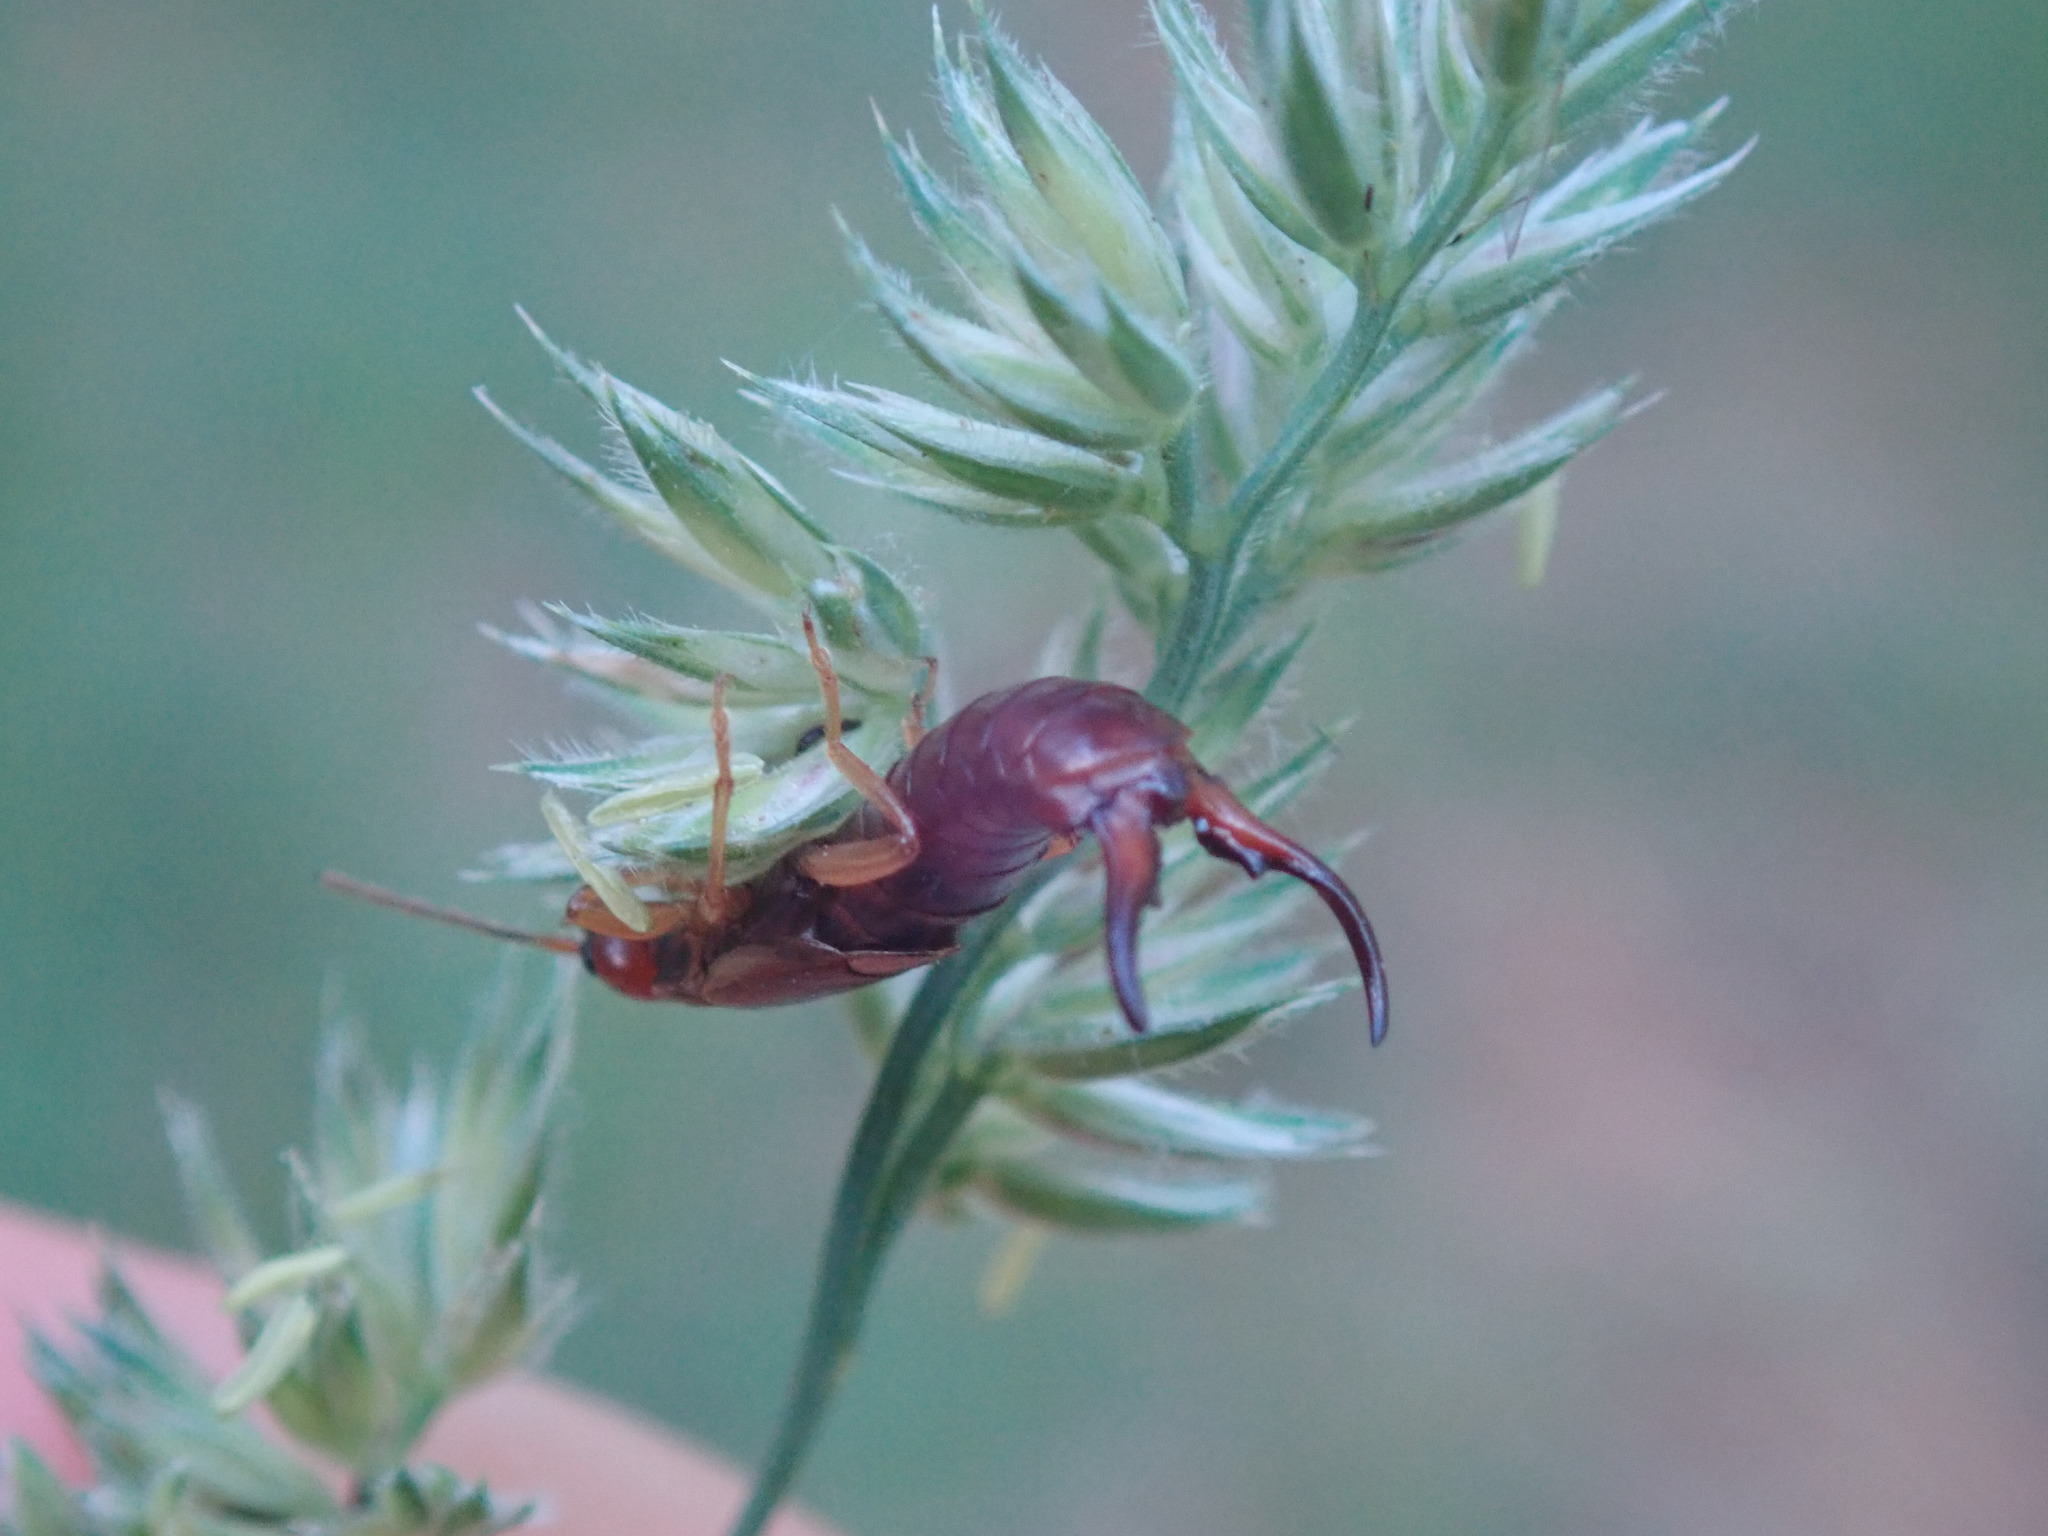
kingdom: Animalia
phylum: Arthropoda
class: Insecta
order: Dermaptera
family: Forficulidae
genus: Forficula
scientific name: Forficula
